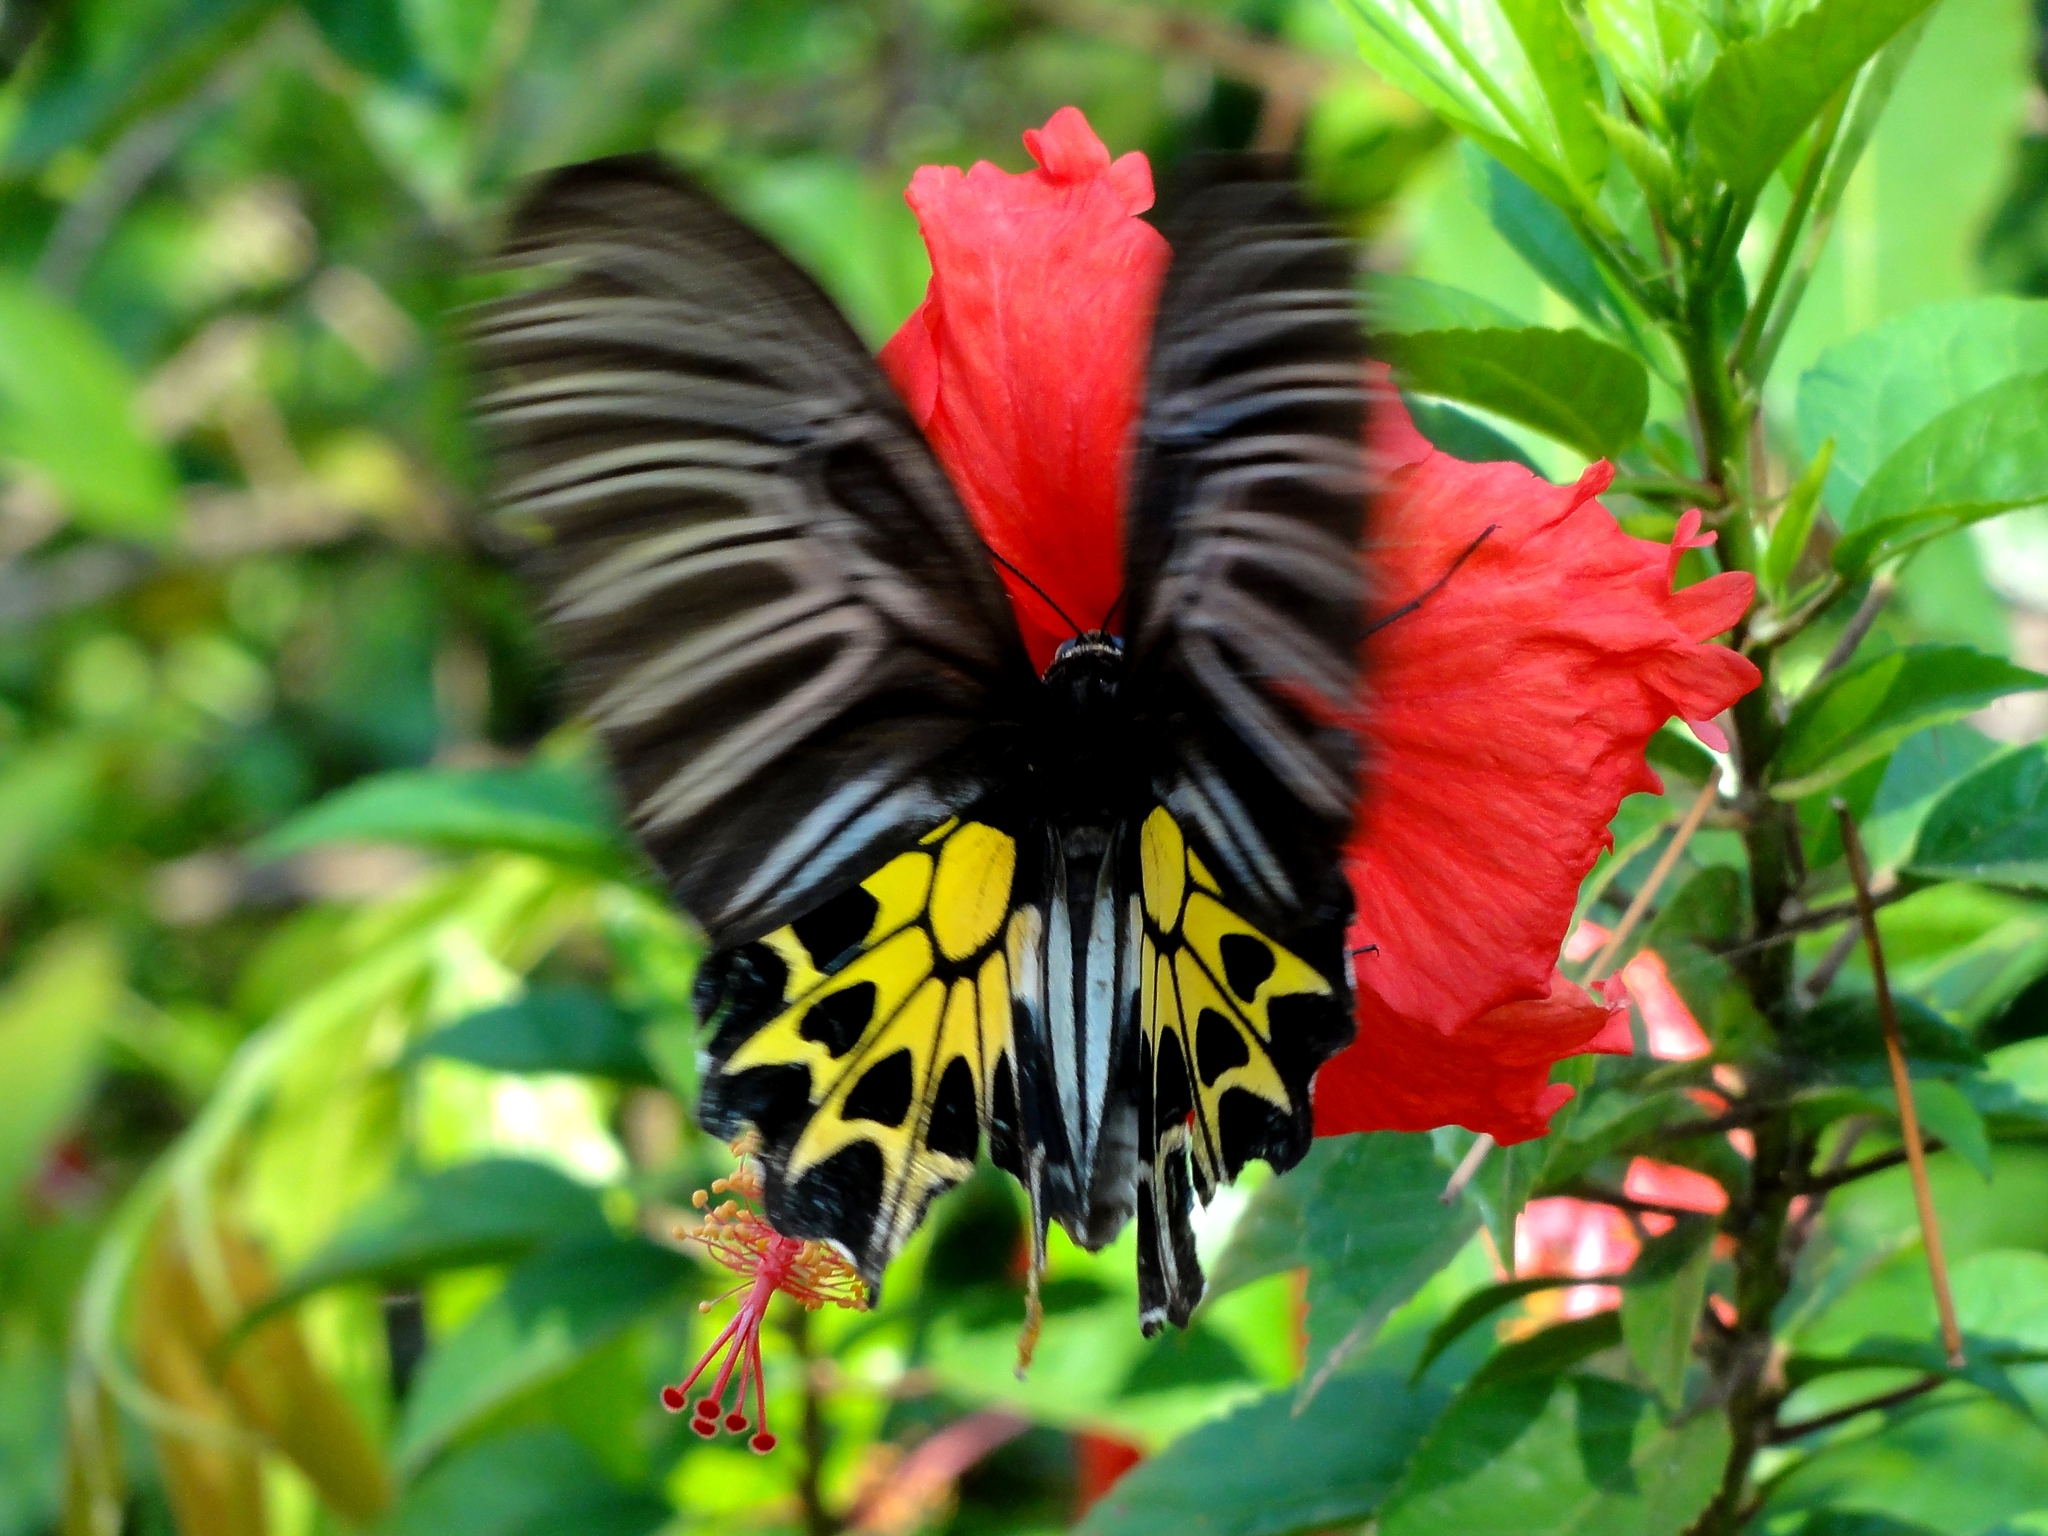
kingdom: Animalia
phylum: Arthropoda
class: Insecta
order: Lepidoptera
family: Papilionidae
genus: Troides
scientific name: Troides aeacus
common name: Golden birdwing
